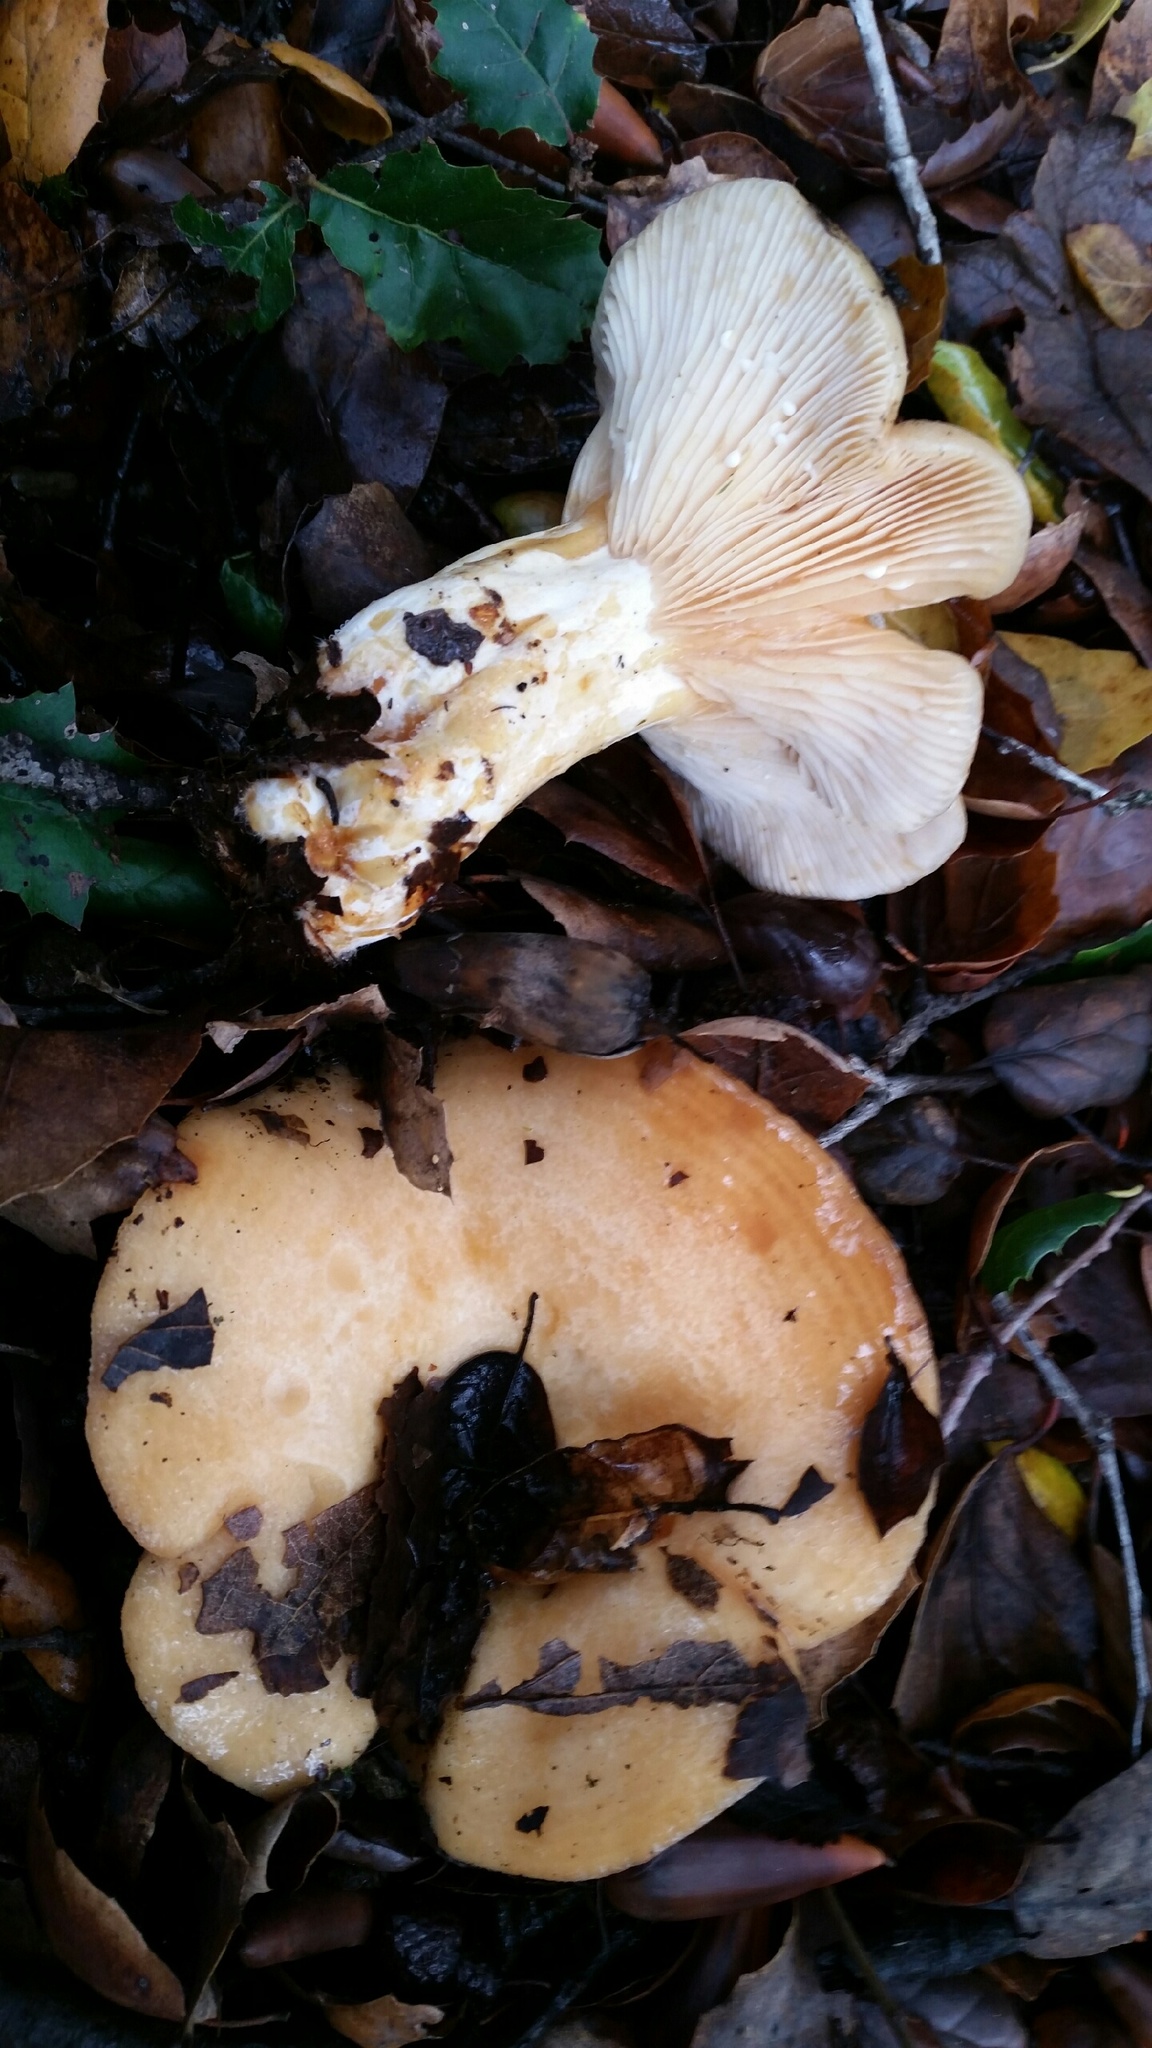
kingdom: Fungi
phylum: Basidiomycota
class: Agaricomycetes
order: Russulales
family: Russulaceae
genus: Lactarius
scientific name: Lactarius alnicola
